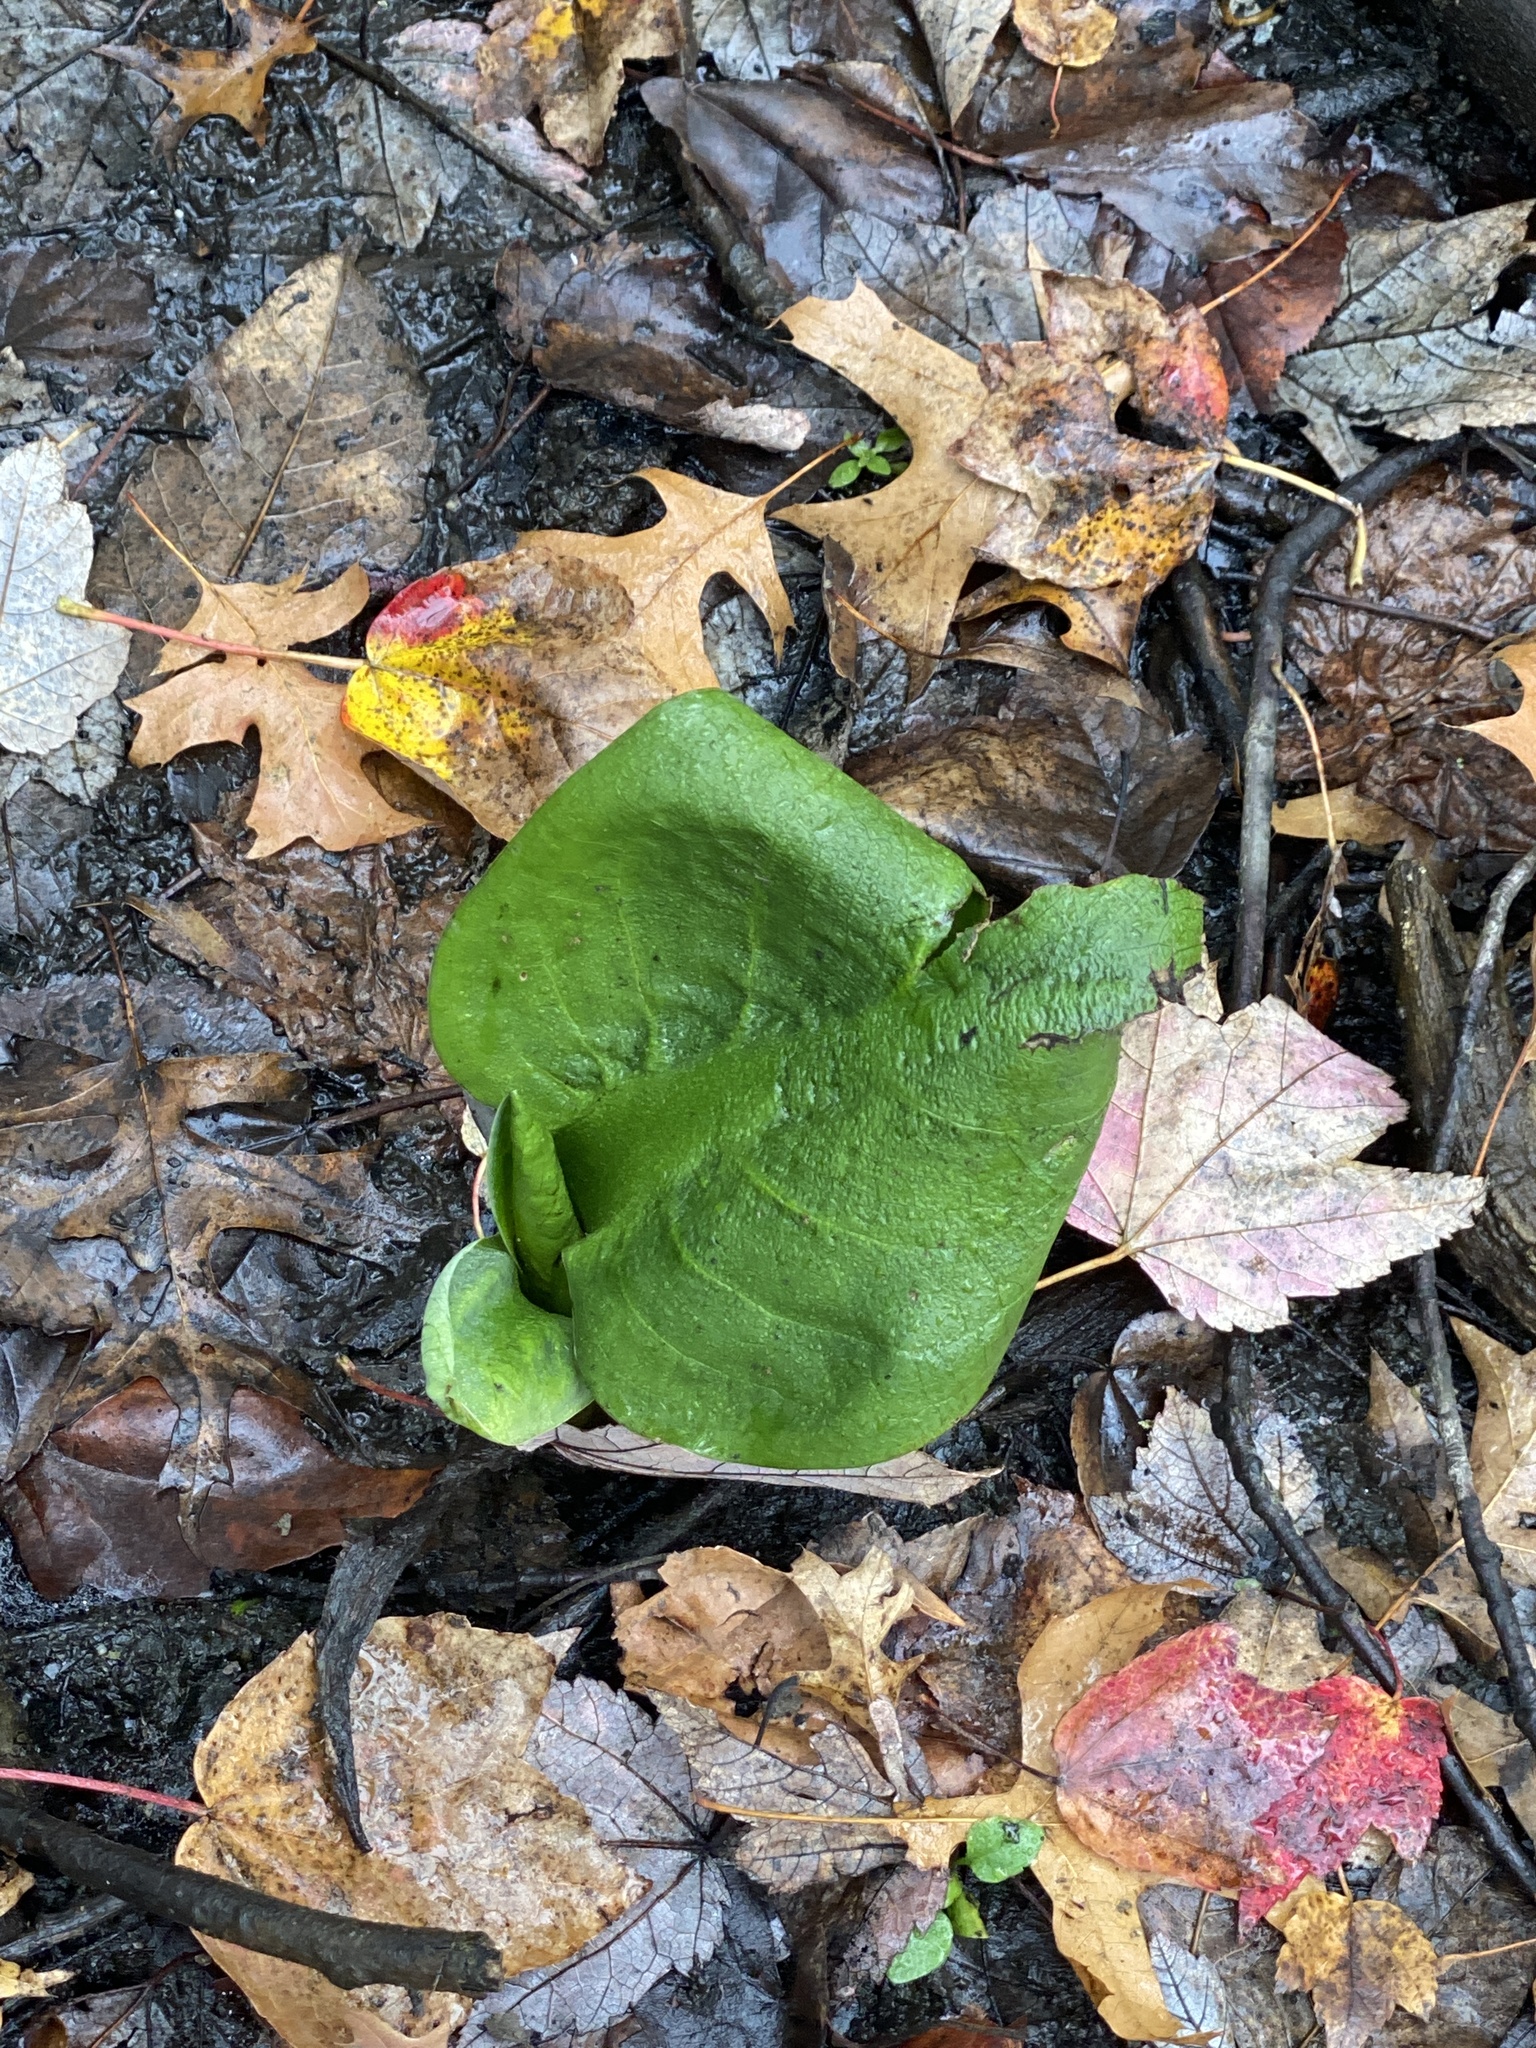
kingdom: Plantae
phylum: Tracheophyta
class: Liliopsida
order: Alismatales
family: Araceae
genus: Symplocarpus
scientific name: Symplocarpus foetidus
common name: Eastern skunk cabbage
